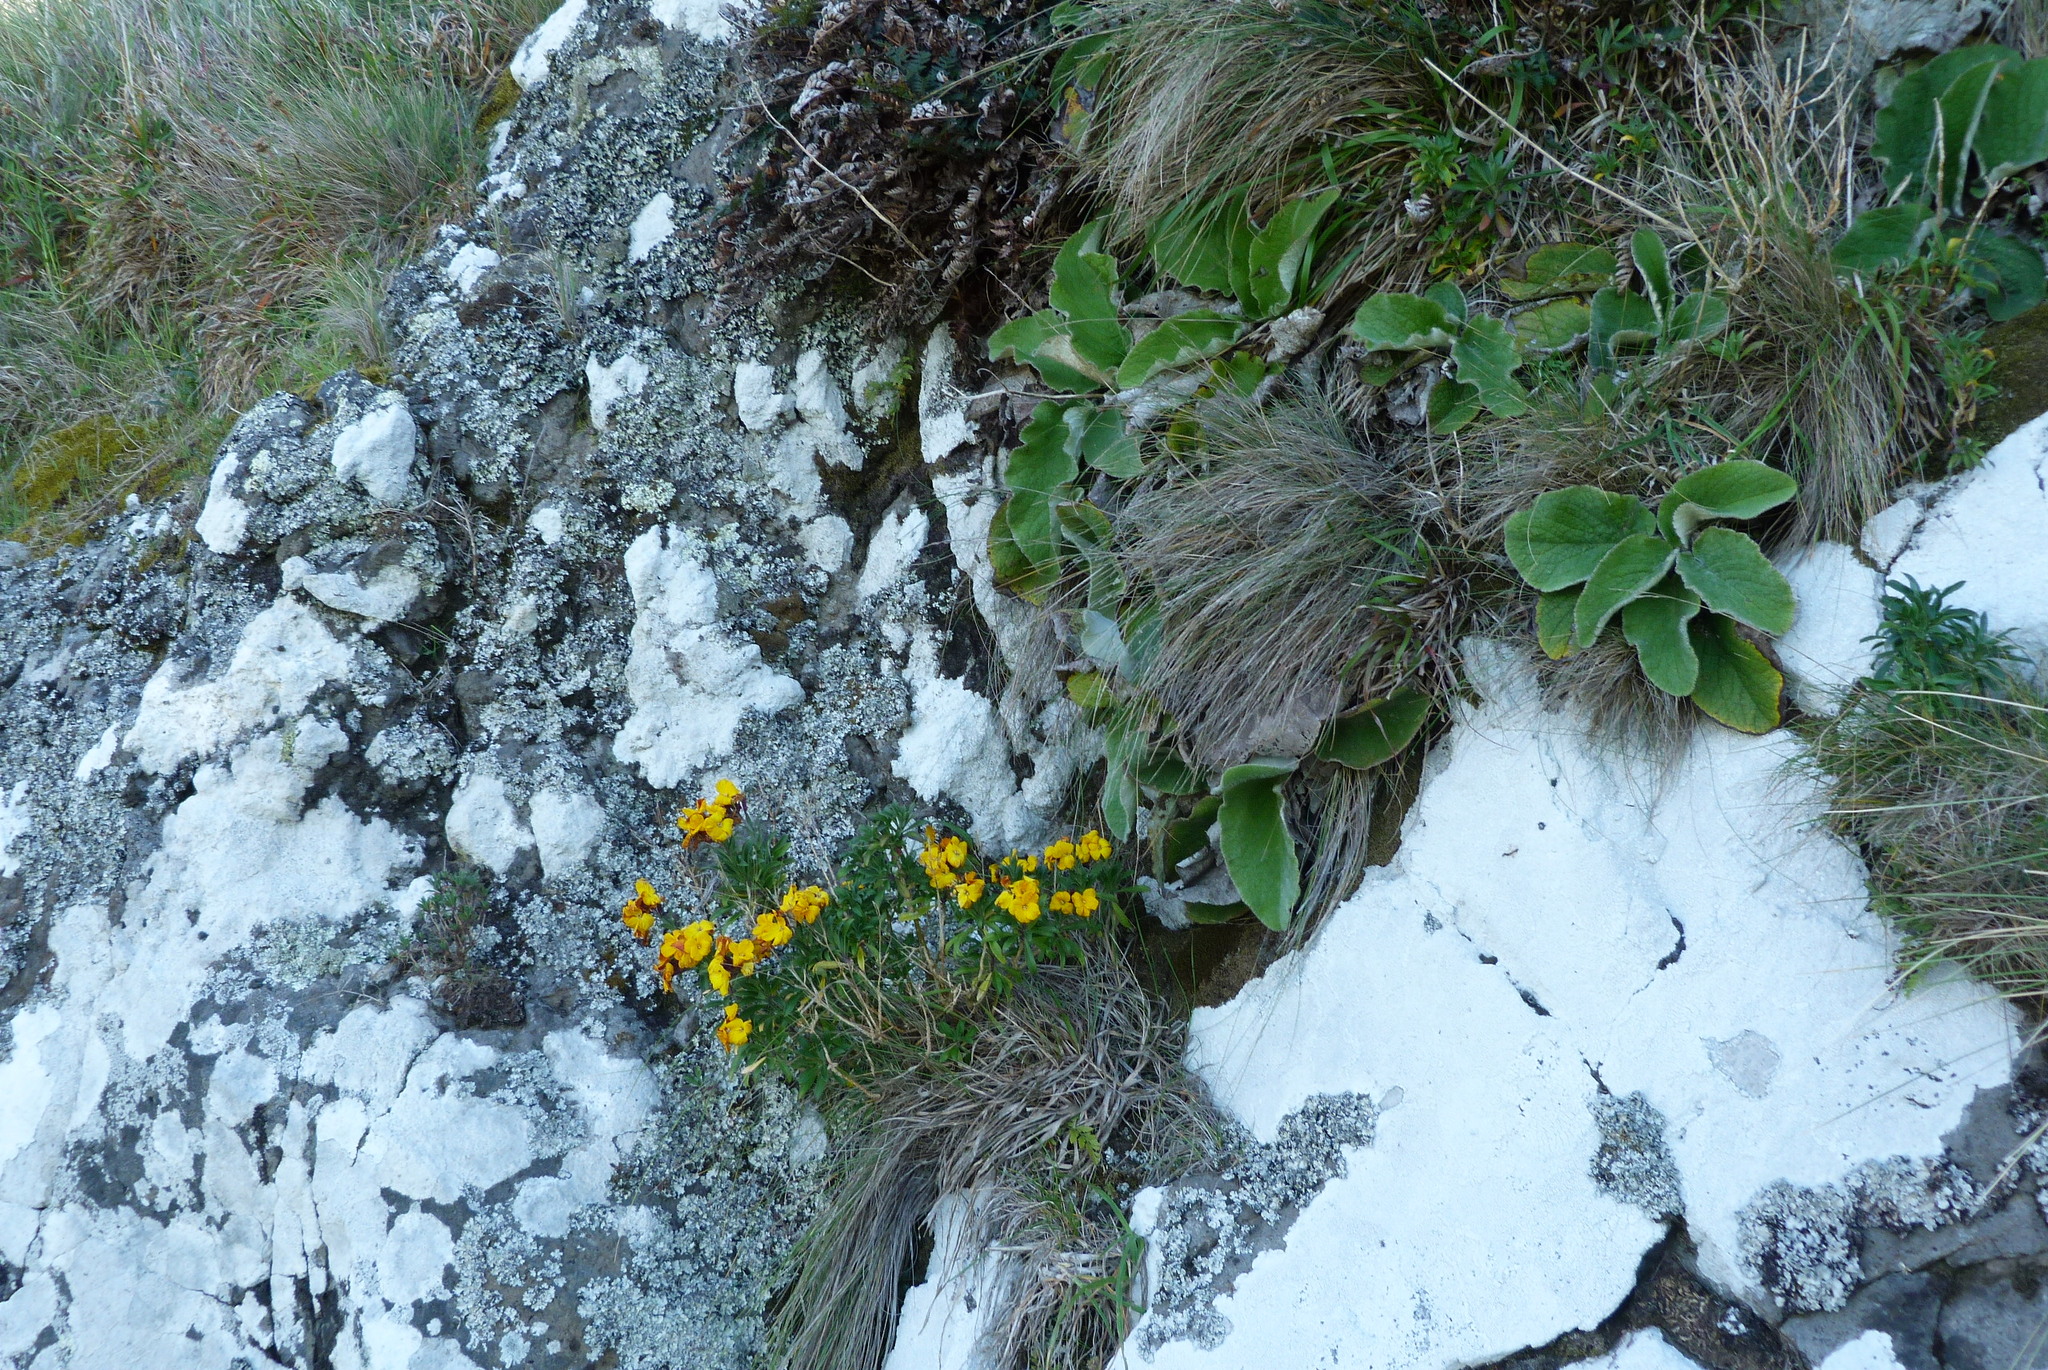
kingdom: Plantae
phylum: Tracheophyta
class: Magnoliopsida
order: Brassicales
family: Brassicaceae
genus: Erysimum
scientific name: Erysimum cheiri
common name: Wallflower
